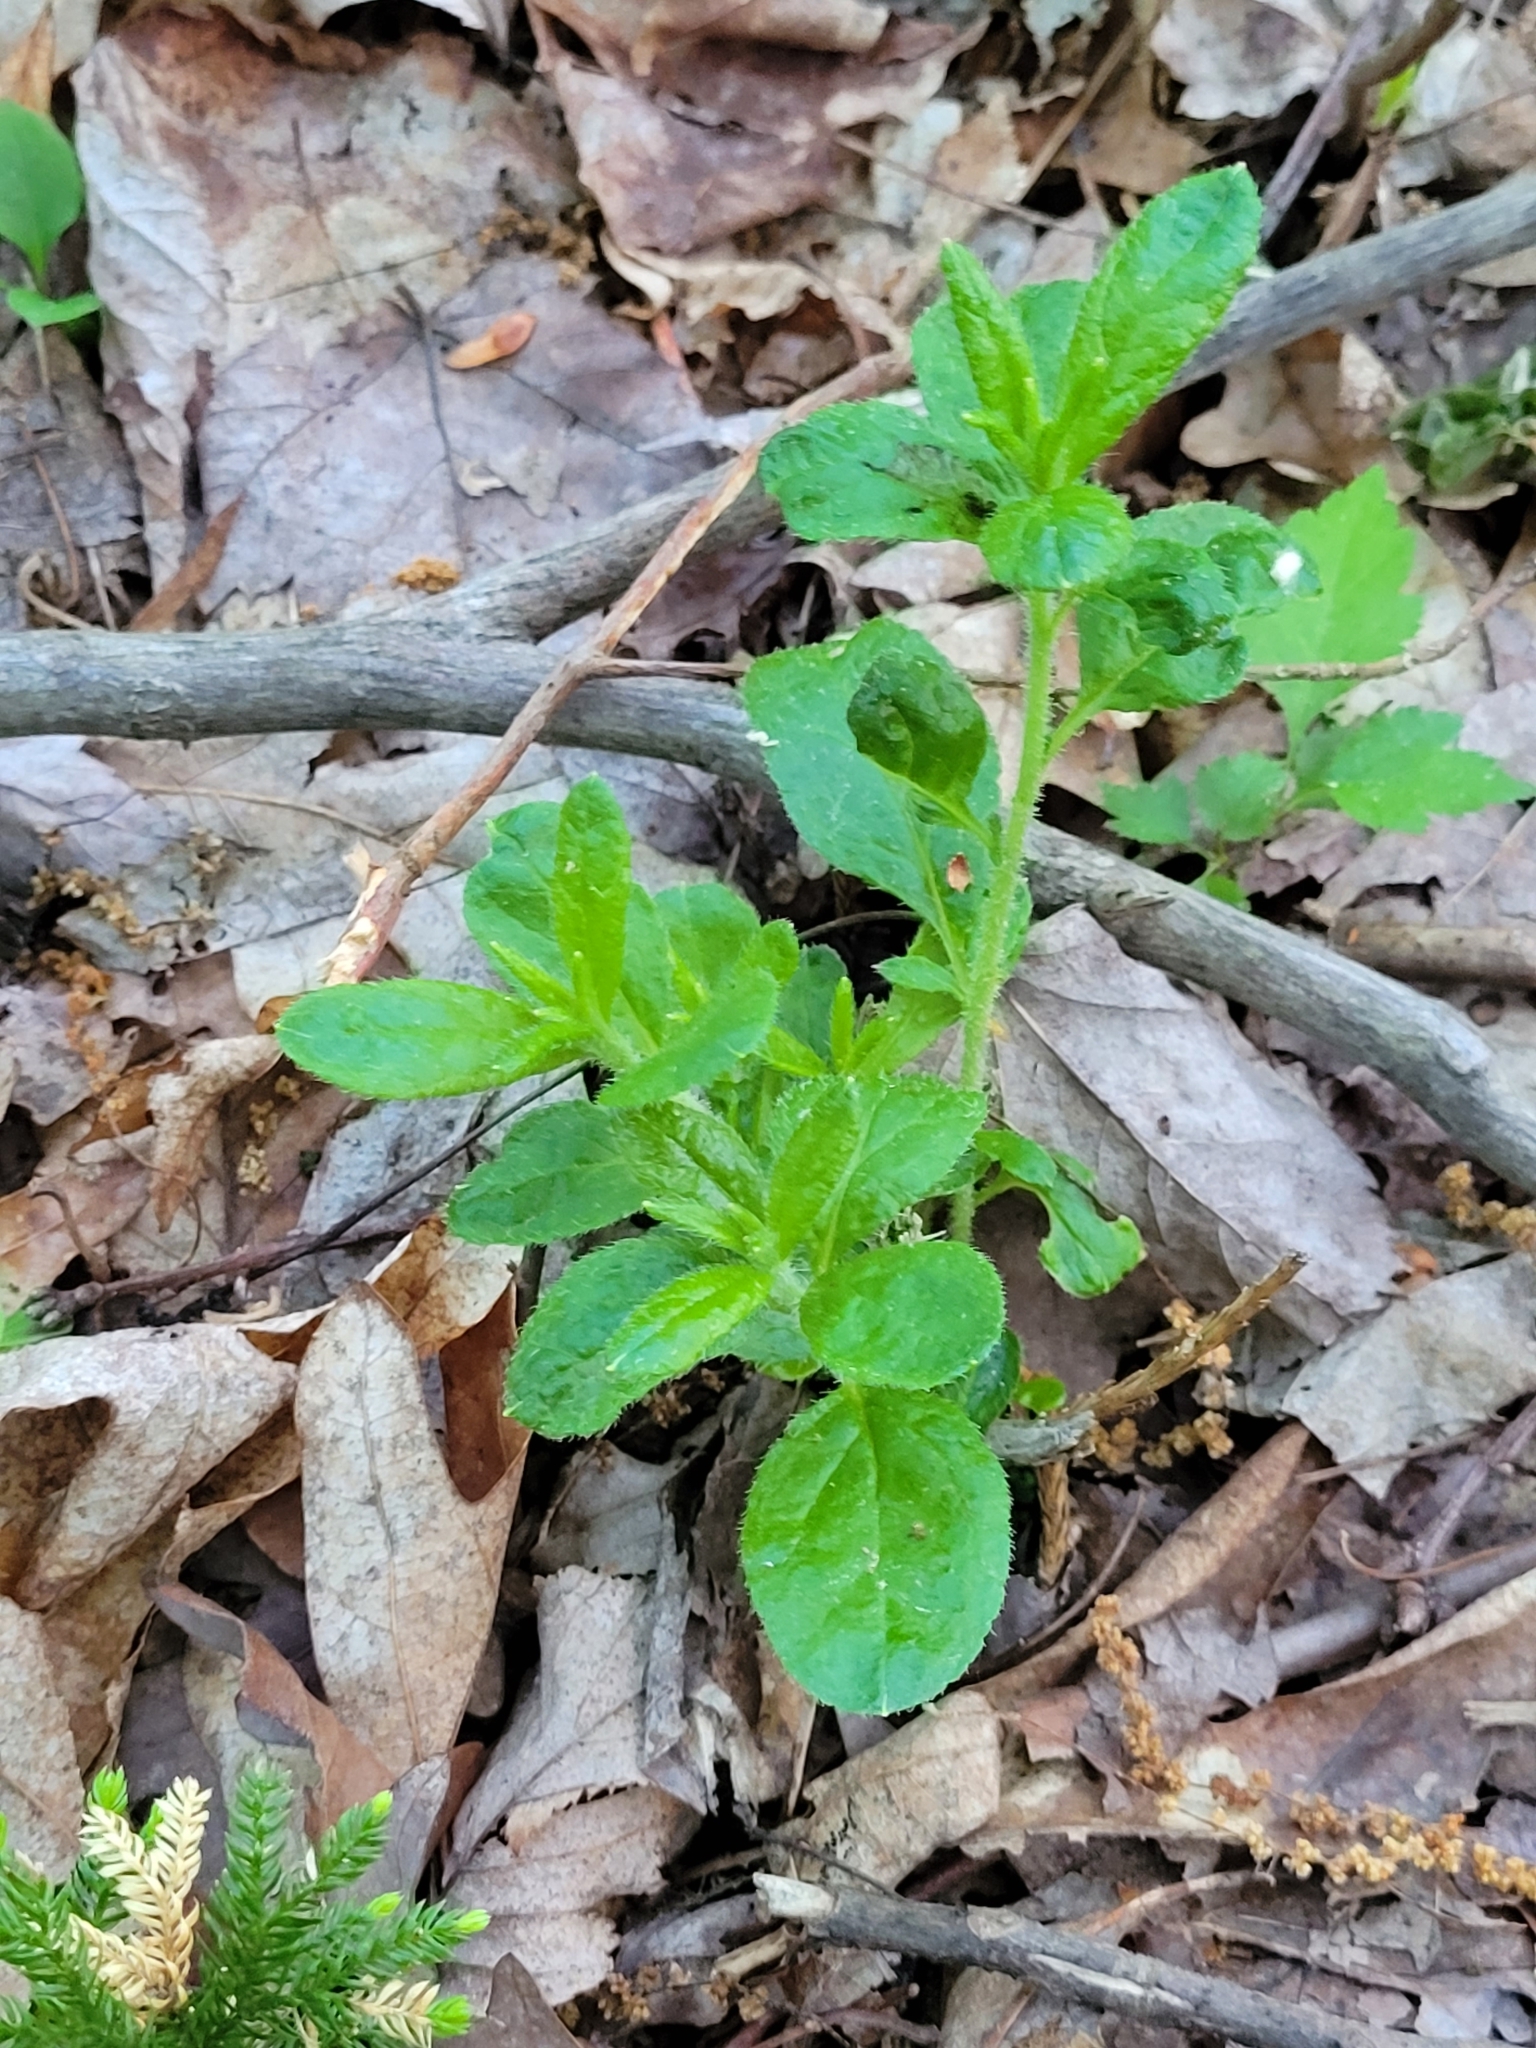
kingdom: Plantae
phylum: Tracheophyta
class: Magnoliopsida
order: Lamiales
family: Plantaginaceae
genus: Veronica
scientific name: Veronica officinalis
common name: Common speedwell
